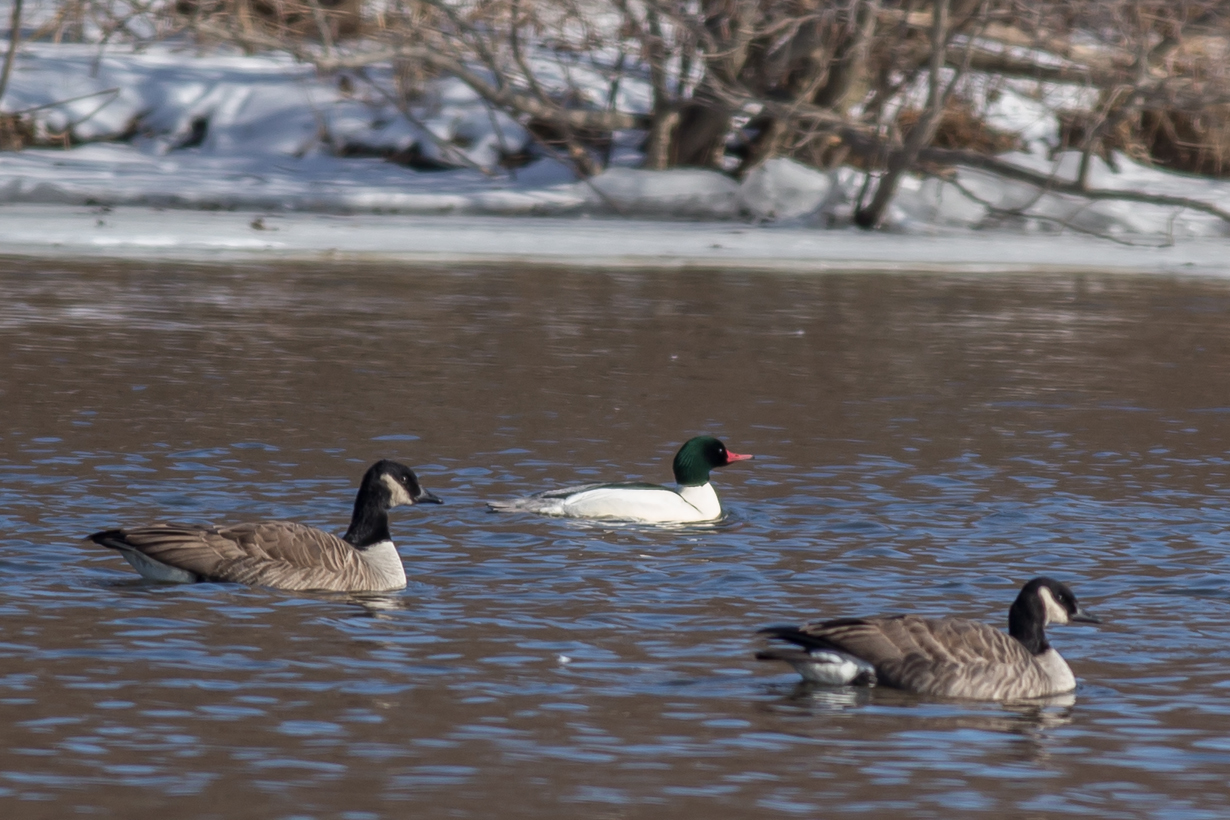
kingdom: Animalia
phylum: Chordata
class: Aves
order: Anseriformes
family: Anatidae
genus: Mergus
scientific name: Mergus merganser
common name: Common merganser
